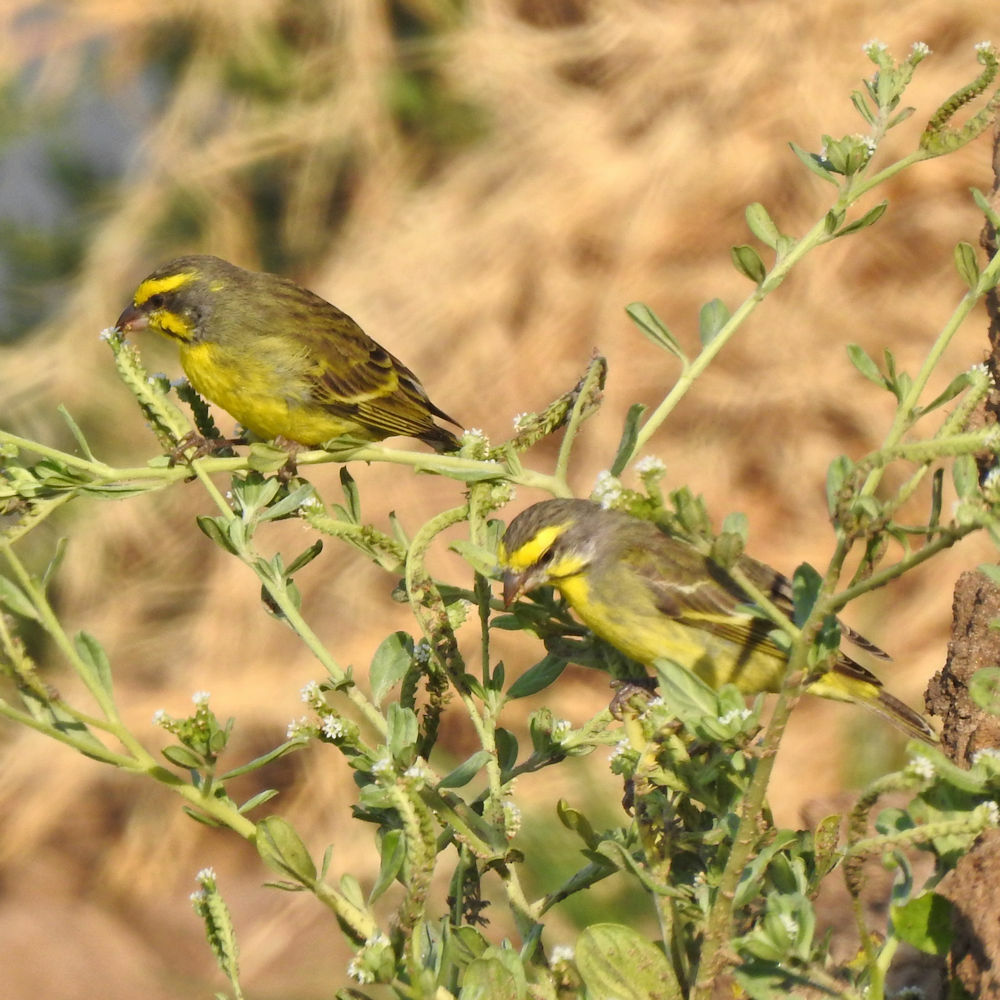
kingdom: Animalia
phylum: Chordata
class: Aves
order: Passeriformes
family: Fringillidae
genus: Crithagra
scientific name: Crithagra mozambica
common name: Yellow-fronted canary
